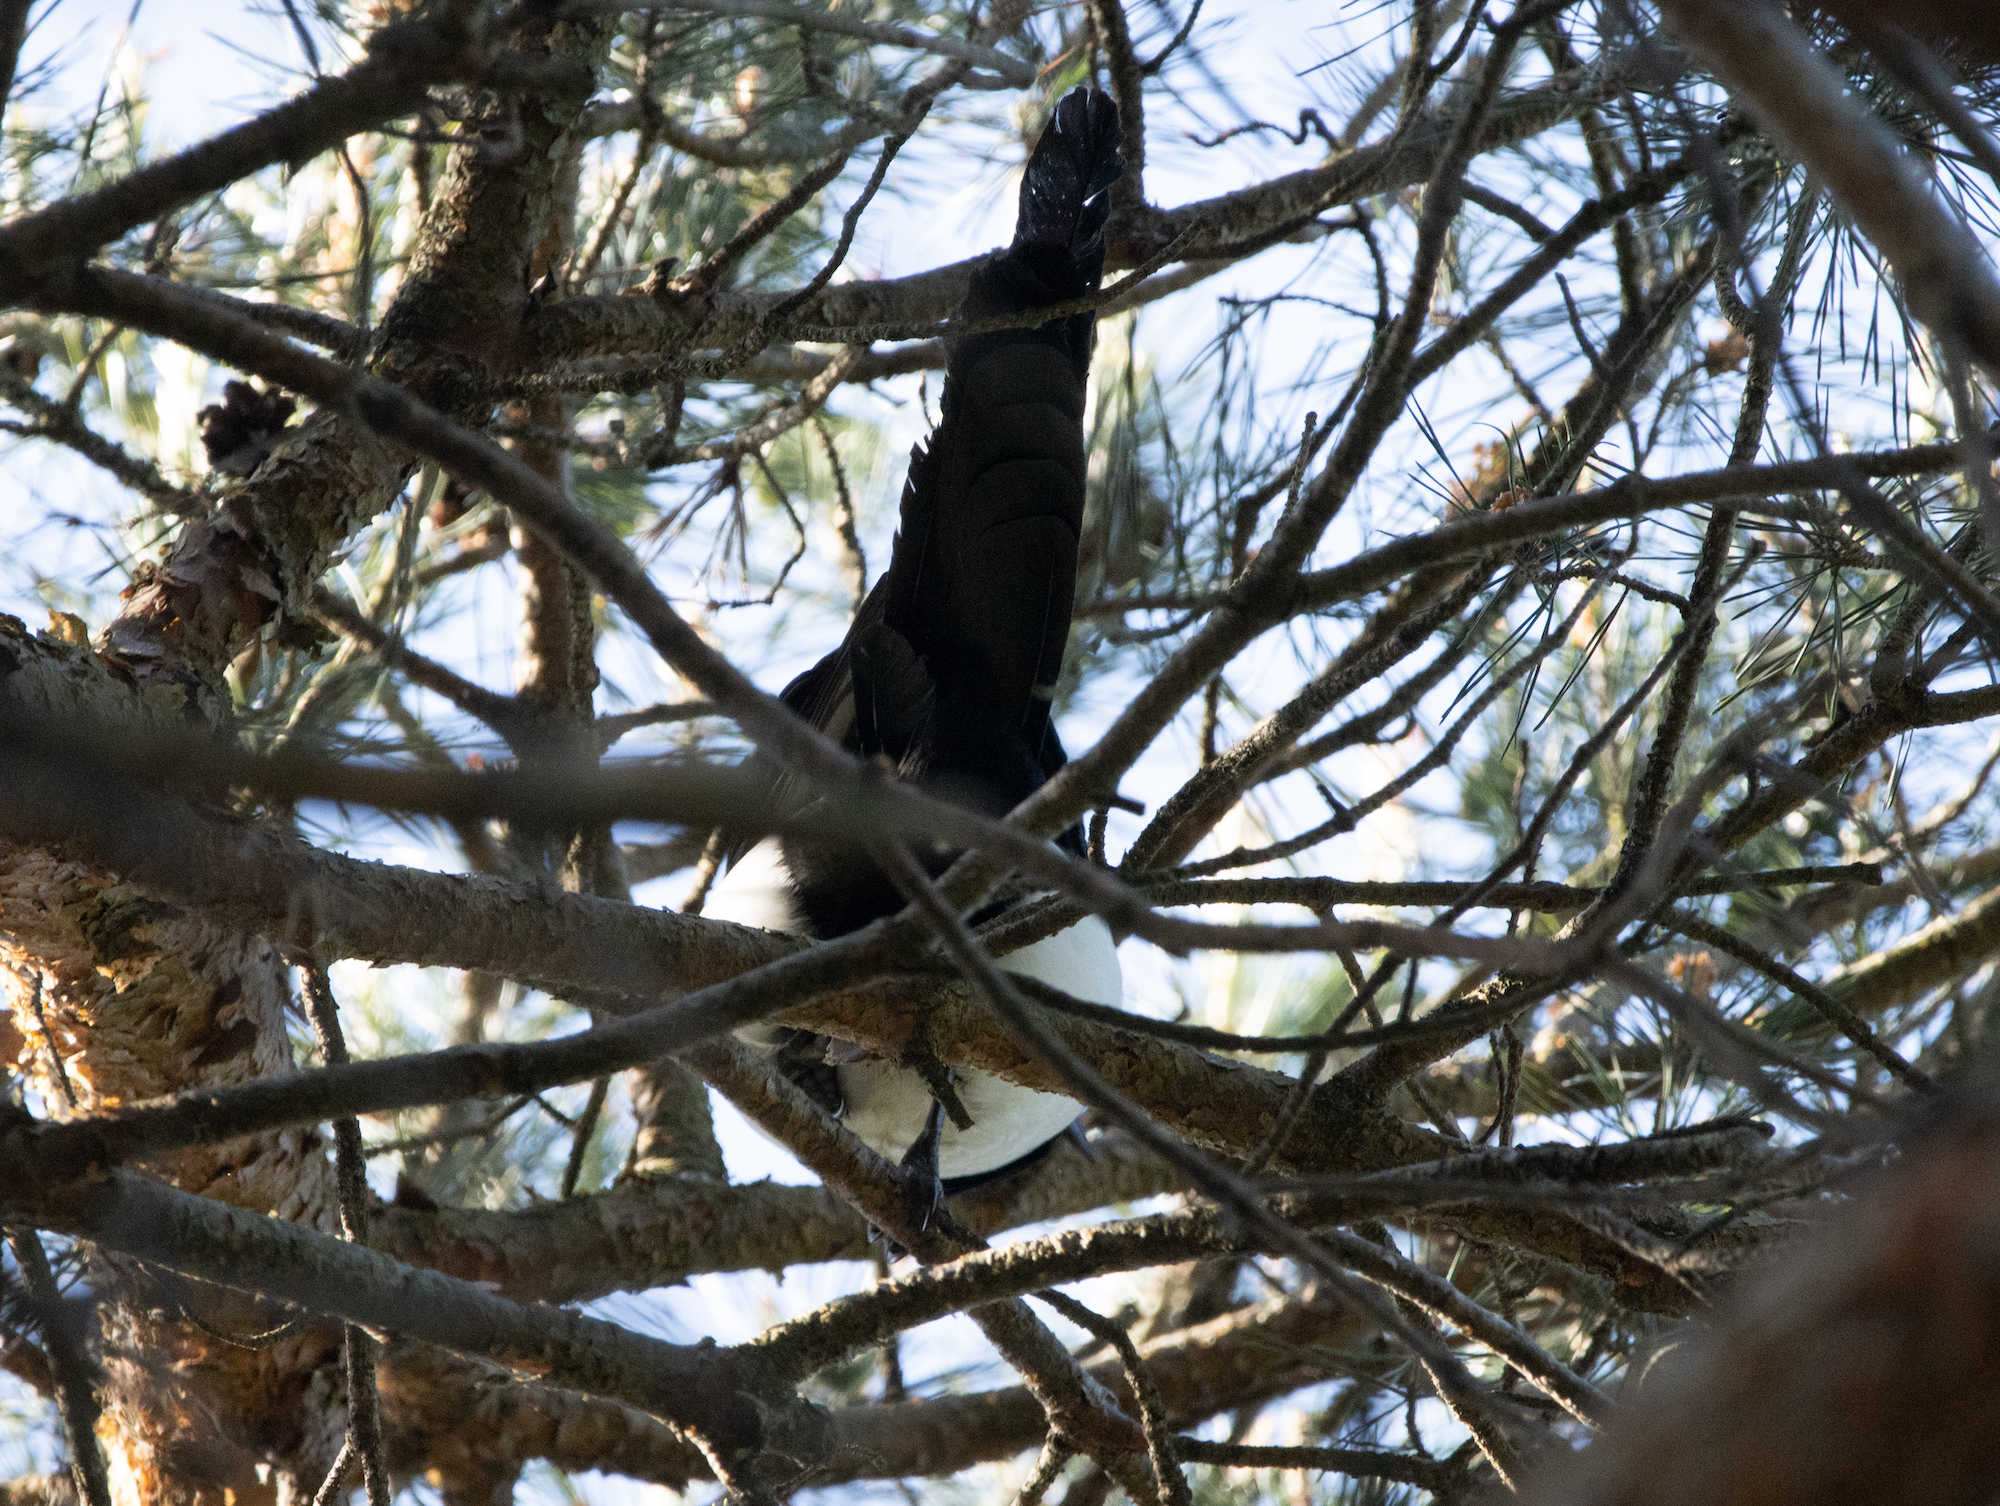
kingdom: Animalia
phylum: Chordata
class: Aves
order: Passeriformes
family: Corvidae
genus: Pica
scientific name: Pica pica
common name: Eurasian magpie
